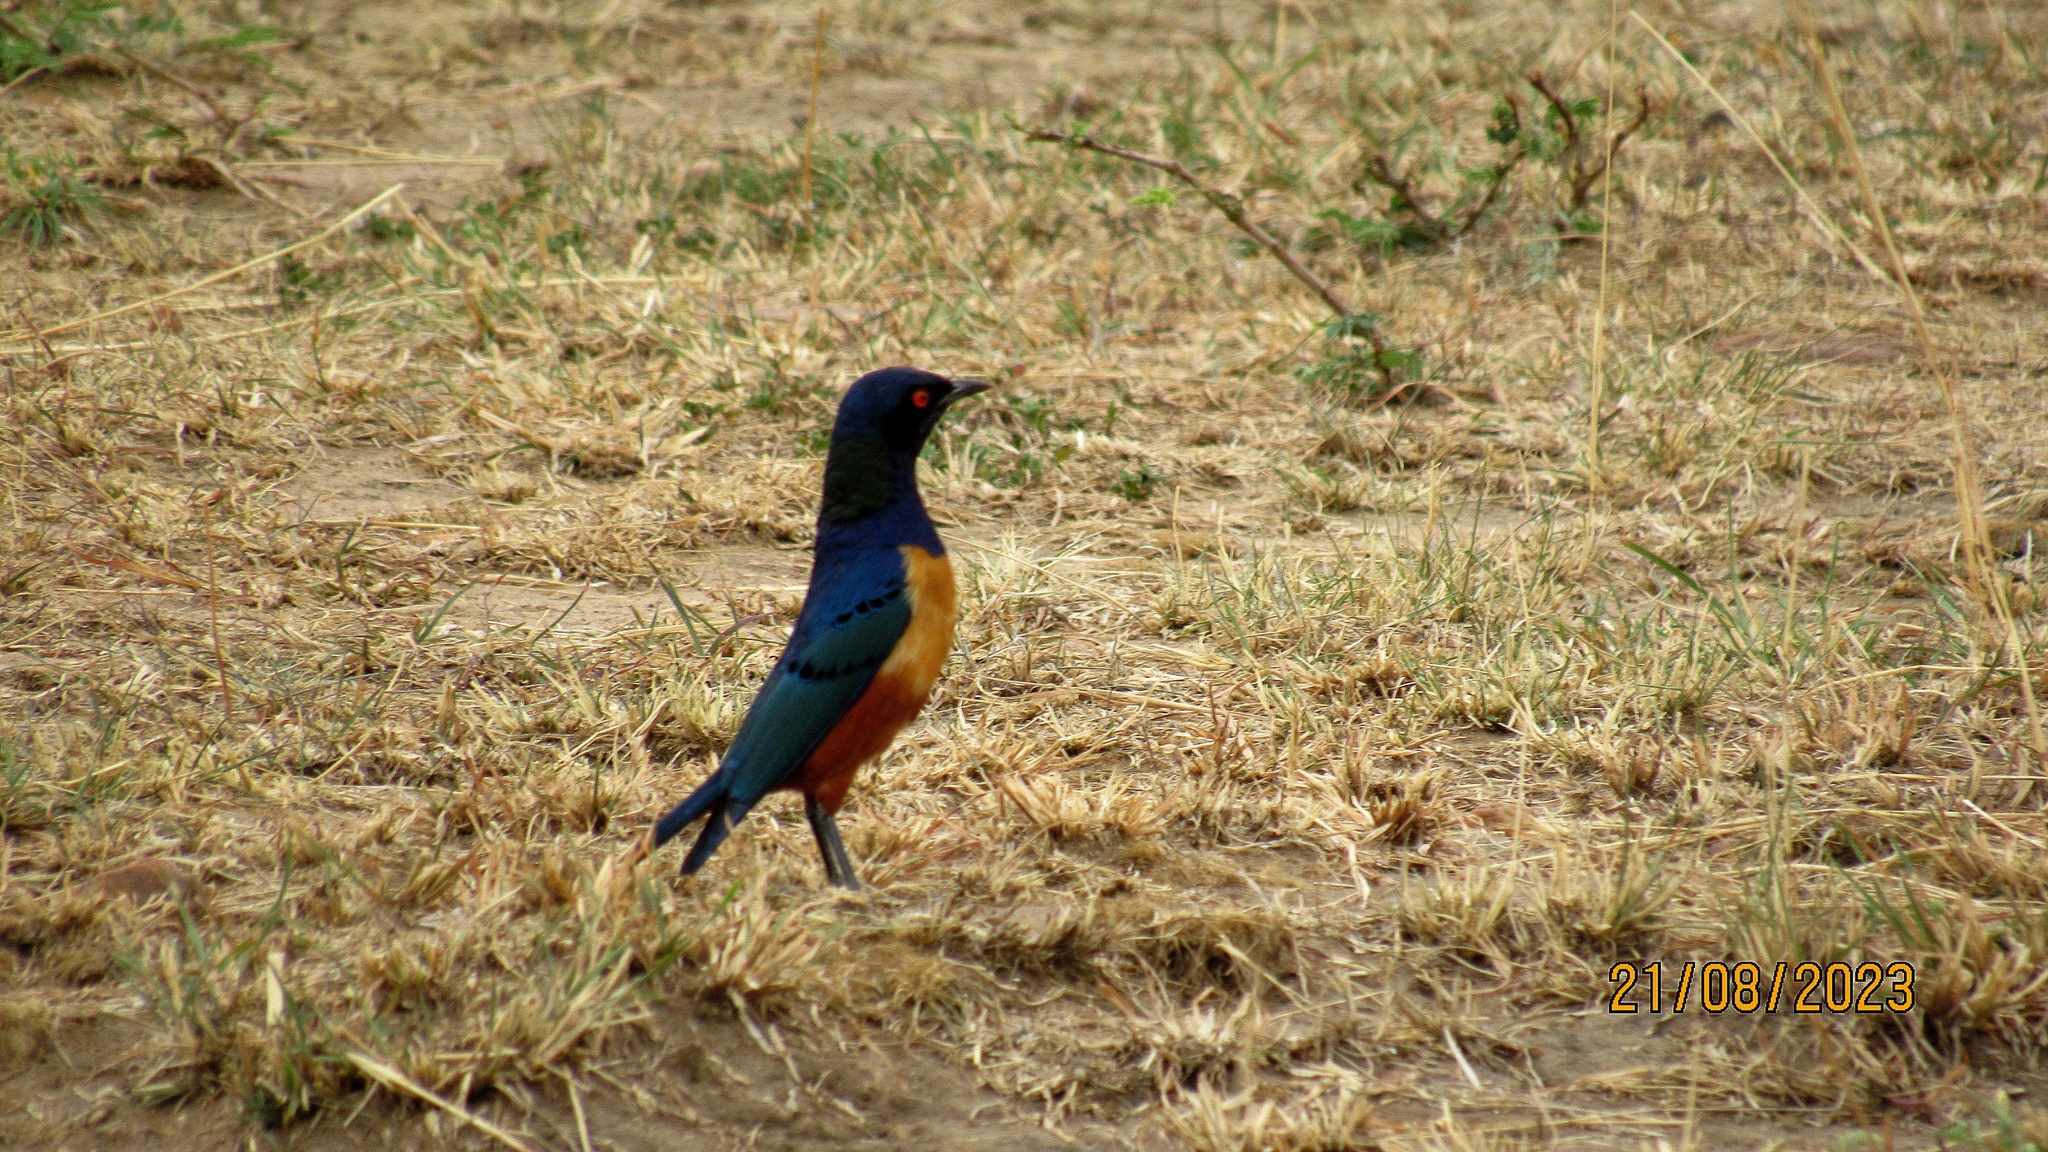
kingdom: Animalia
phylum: Chordata
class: Aves
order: Passeriformes
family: Sturnidae
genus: Lamprotornis
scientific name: Lamprotornis hildebrandti
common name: Hildebrandt's starling
